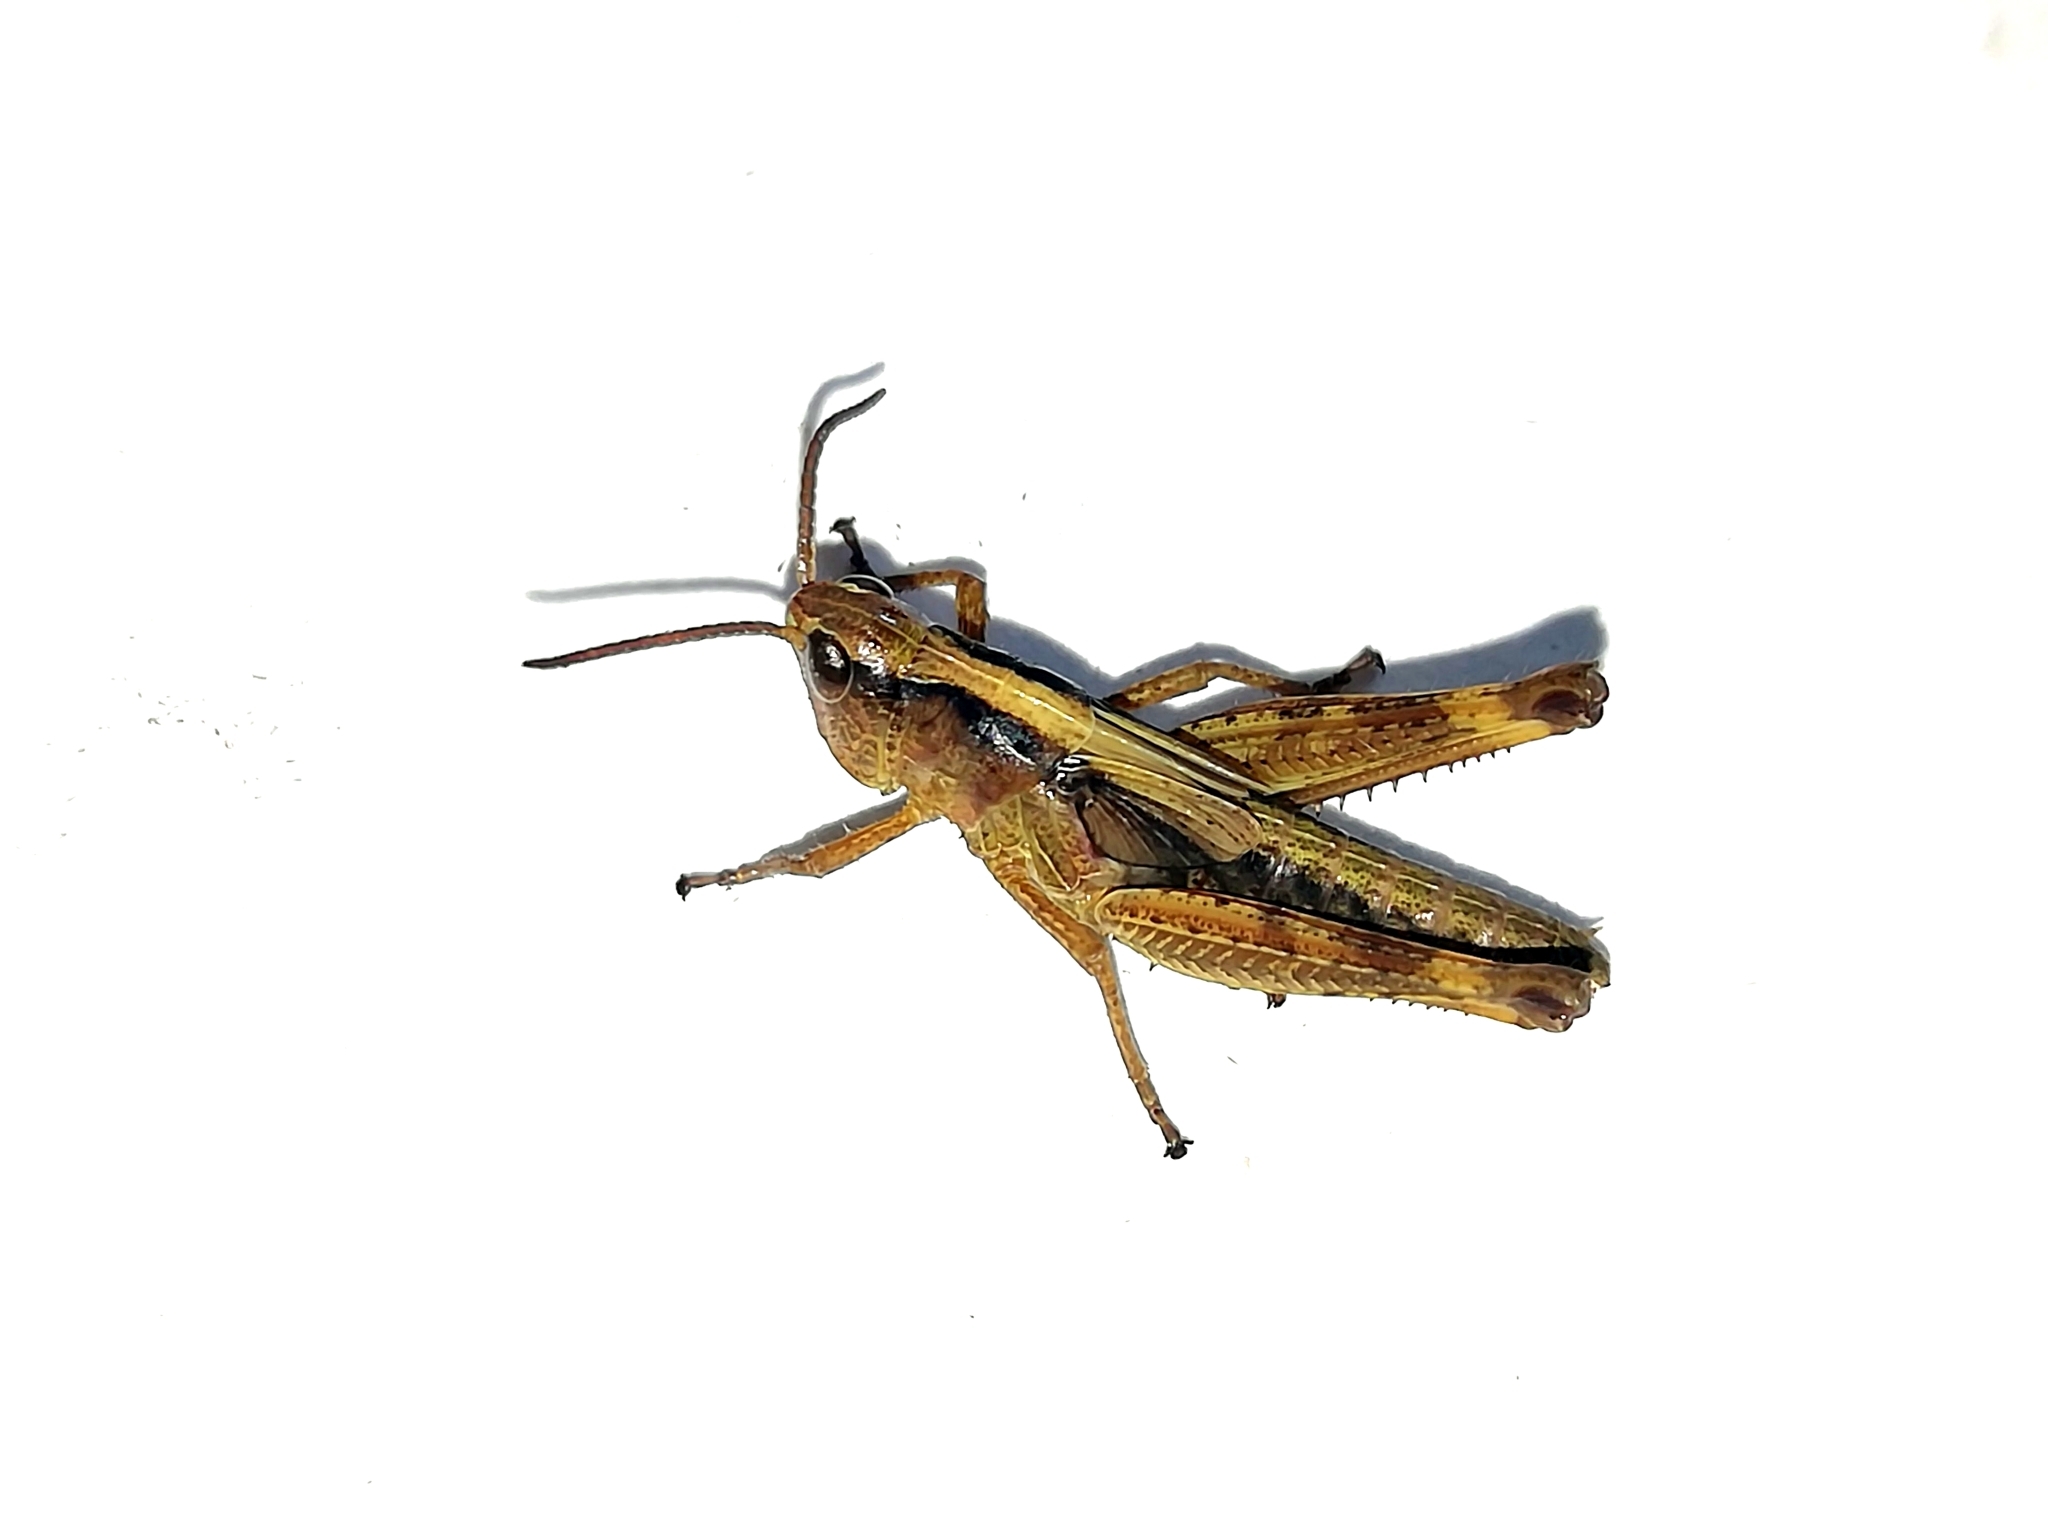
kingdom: Animalia
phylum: Arthropoda
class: Insecta
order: Orthoptera
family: Acrididae
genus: Megaulacobothrus
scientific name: Megaulacobothrus aethalinus
